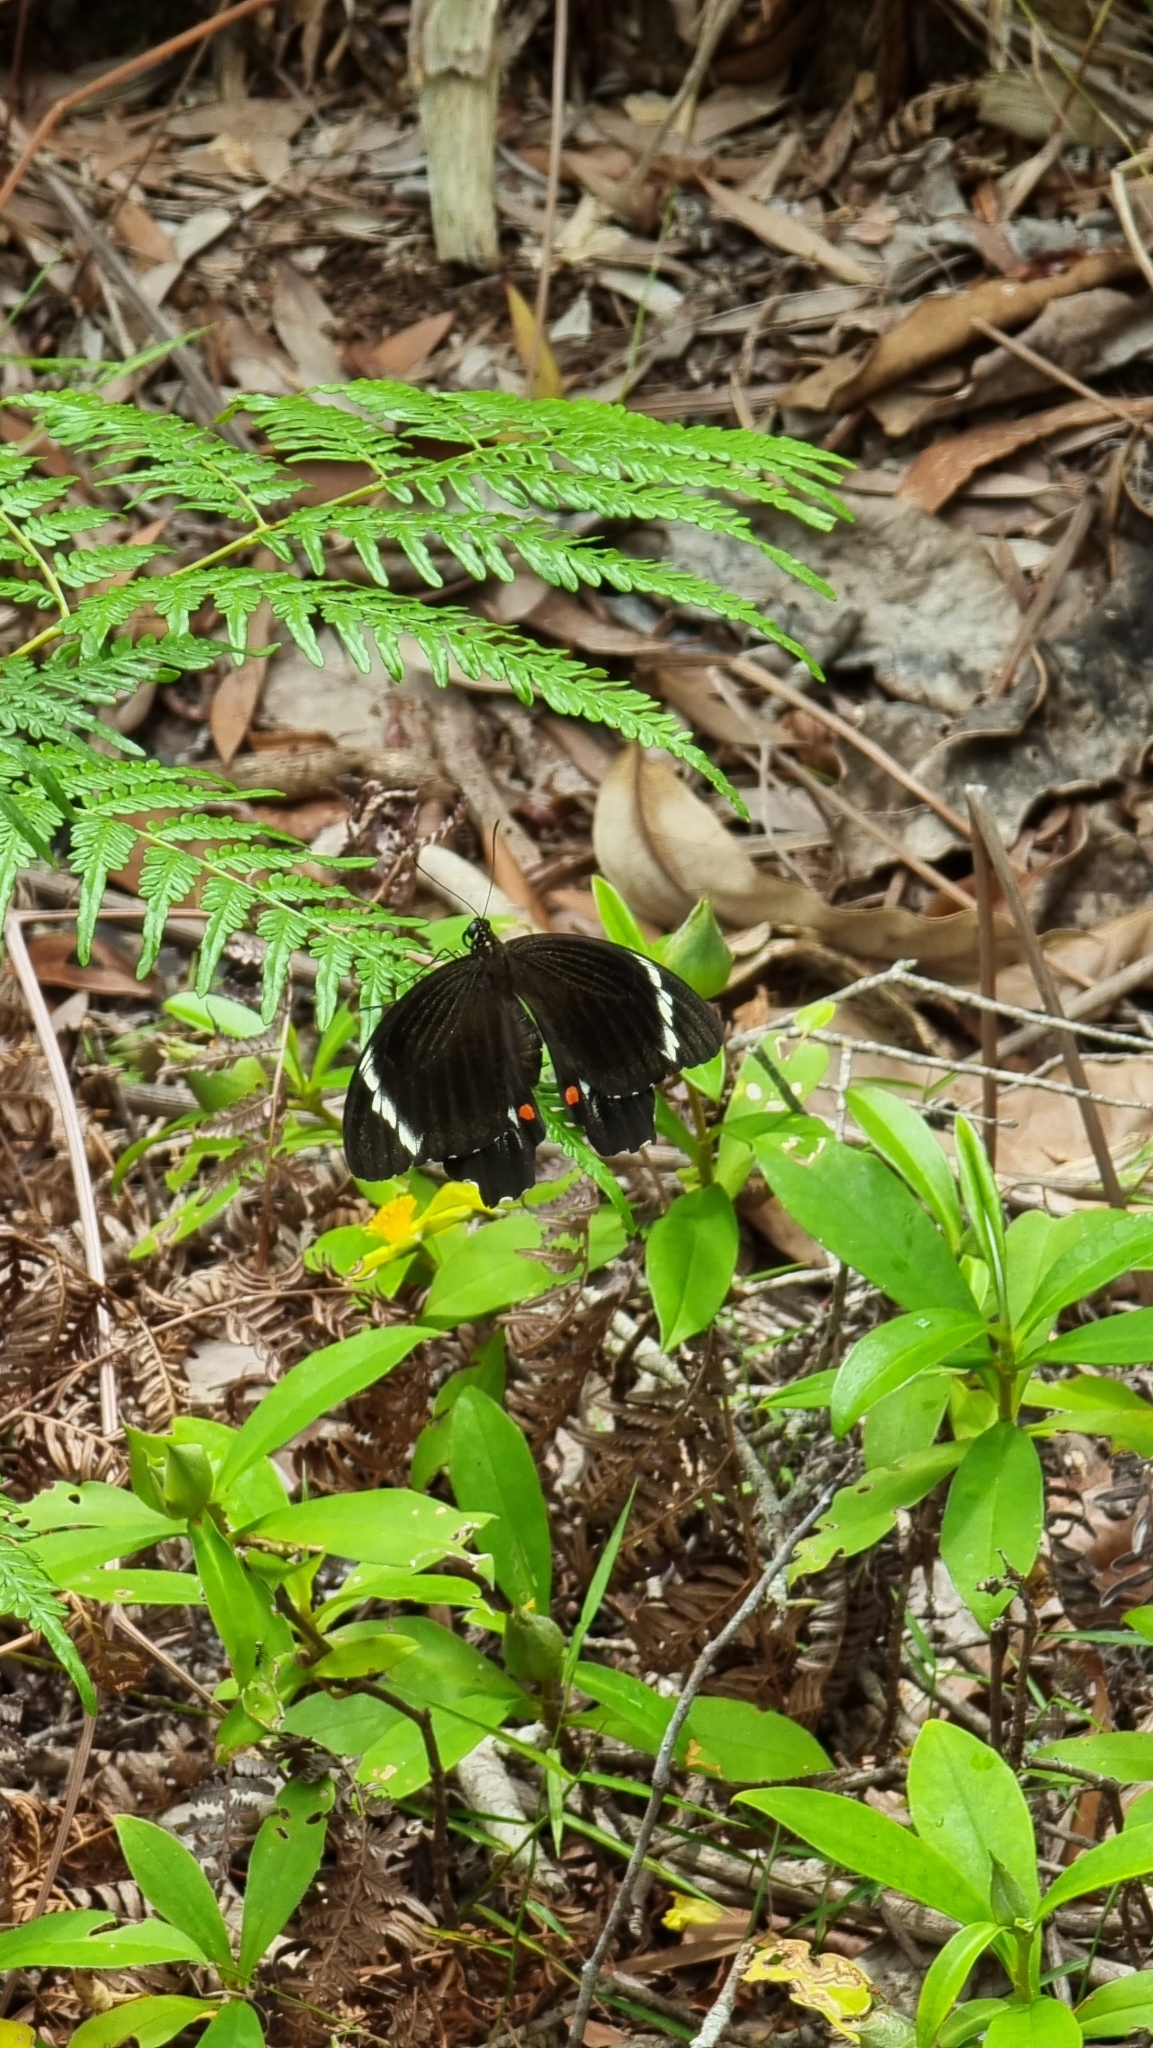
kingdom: Animalia
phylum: Arthropoda
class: Insecta
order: Lepidoptera
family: Papilionidae
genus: Papilio
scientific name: Papilio aegeus
